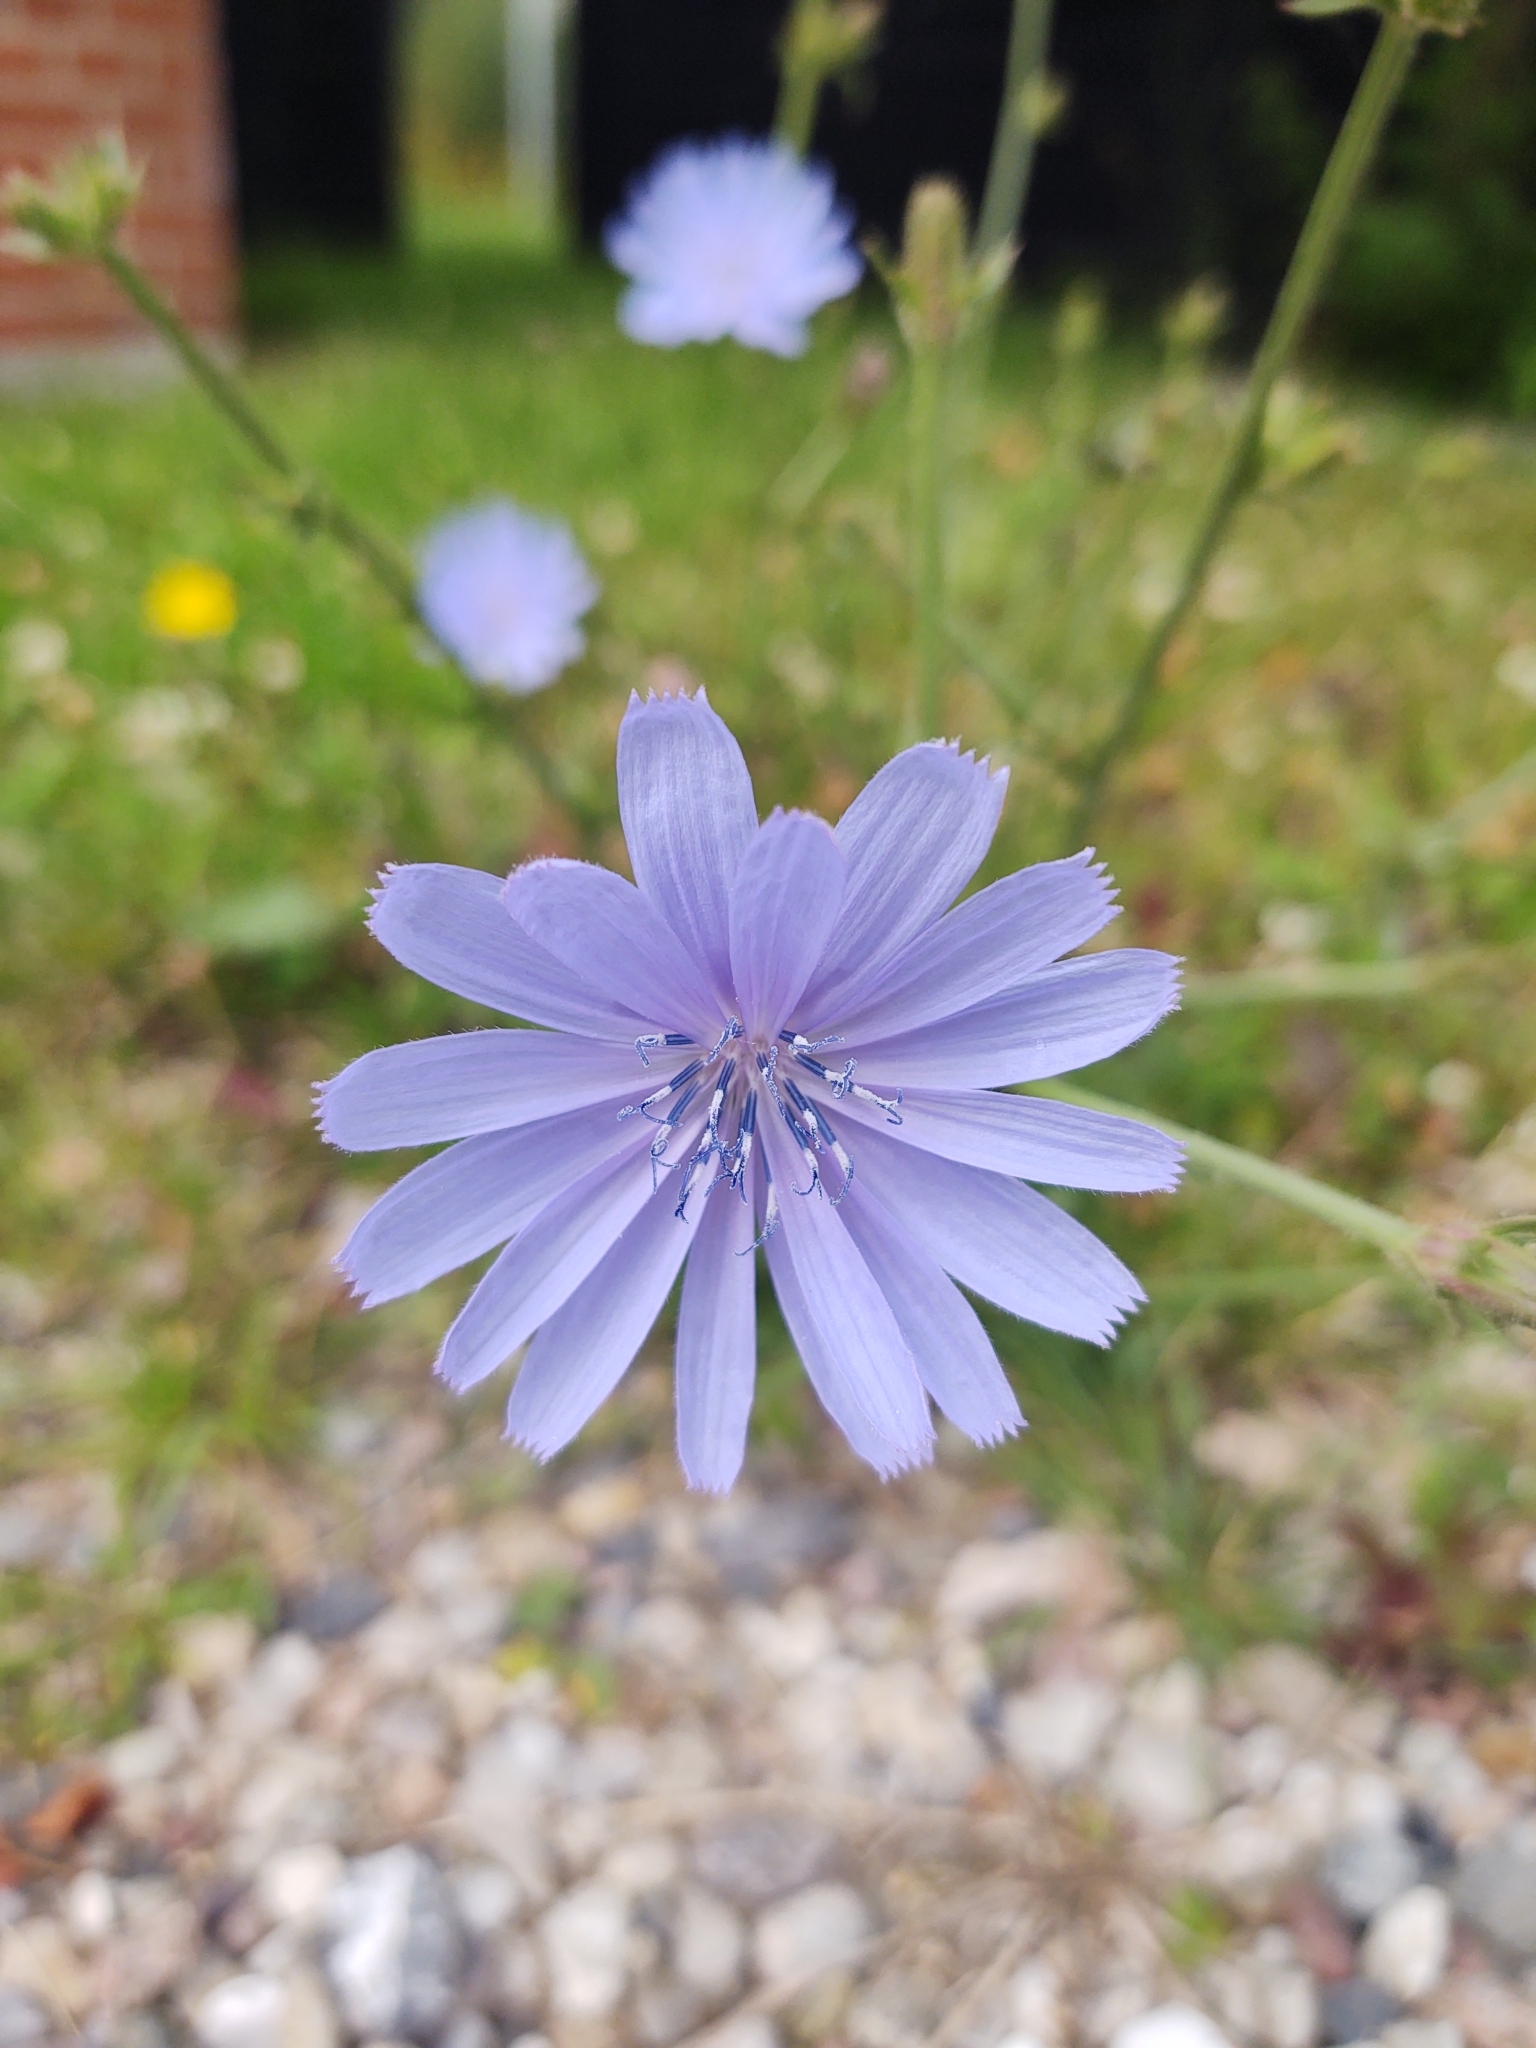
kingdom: Plantae
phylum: Tracheophyta
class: Magnoliopsida
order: Asterales
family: Asteraceae
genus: Cichorium
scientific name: Cichorium intybus
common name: Chicory
